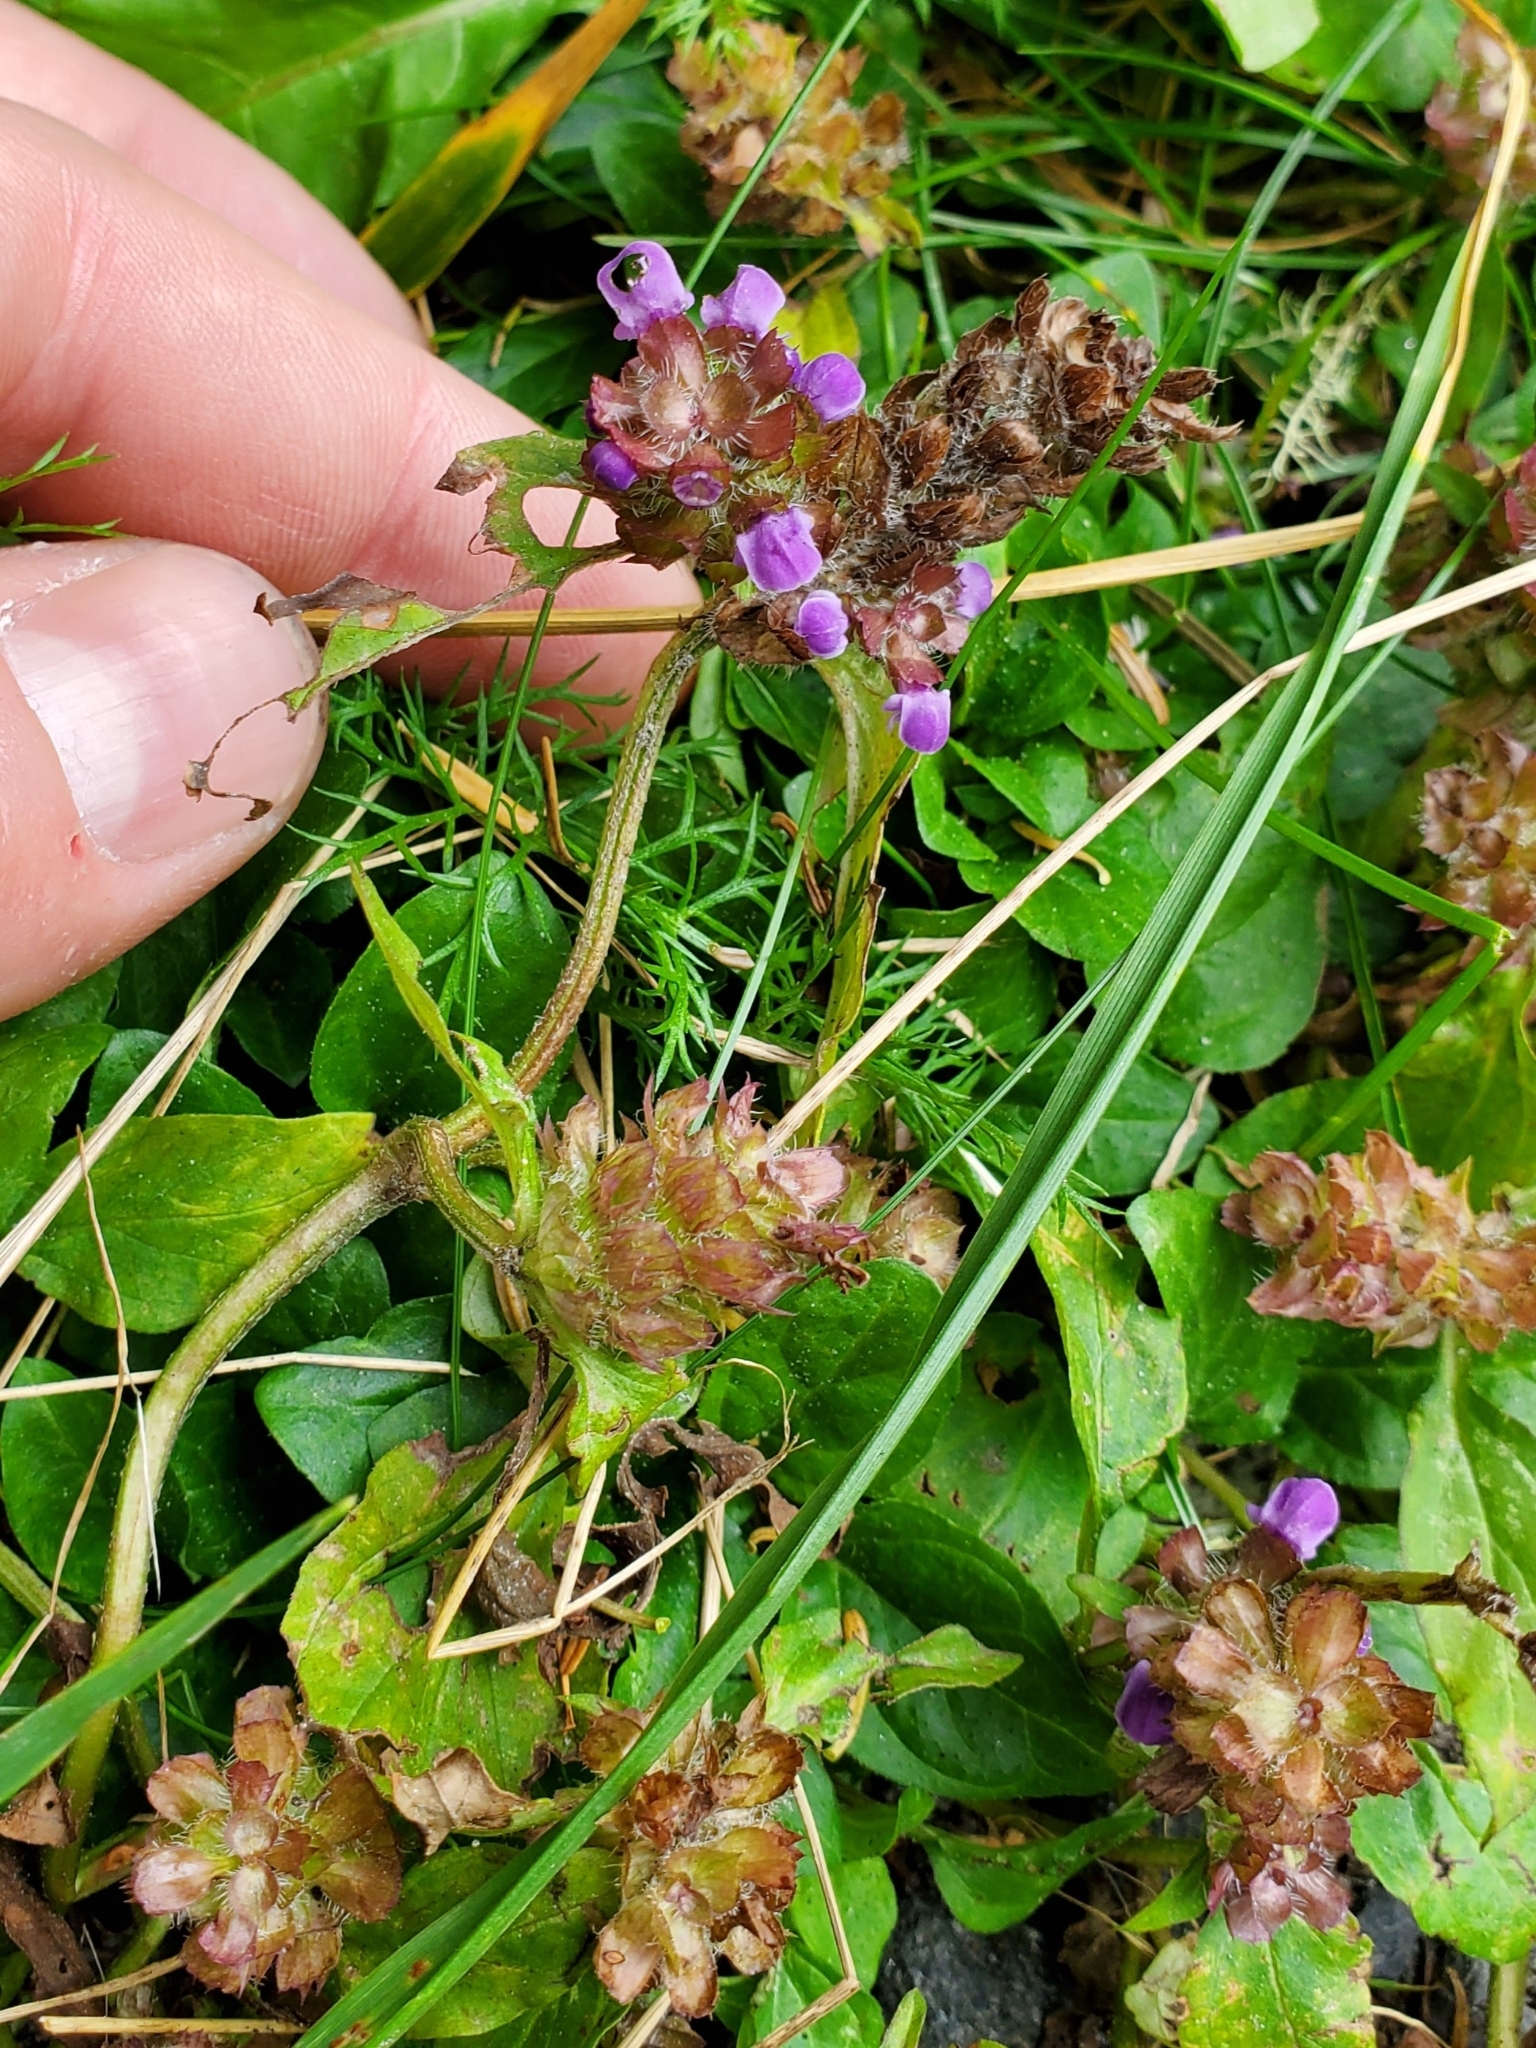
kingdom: Plantae
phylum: Tracheophyta
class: Magnoliopsida
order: Lamiales
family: Lamiaceae
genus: Prunella
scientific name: Prunella vulgaris
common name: Heal-all
